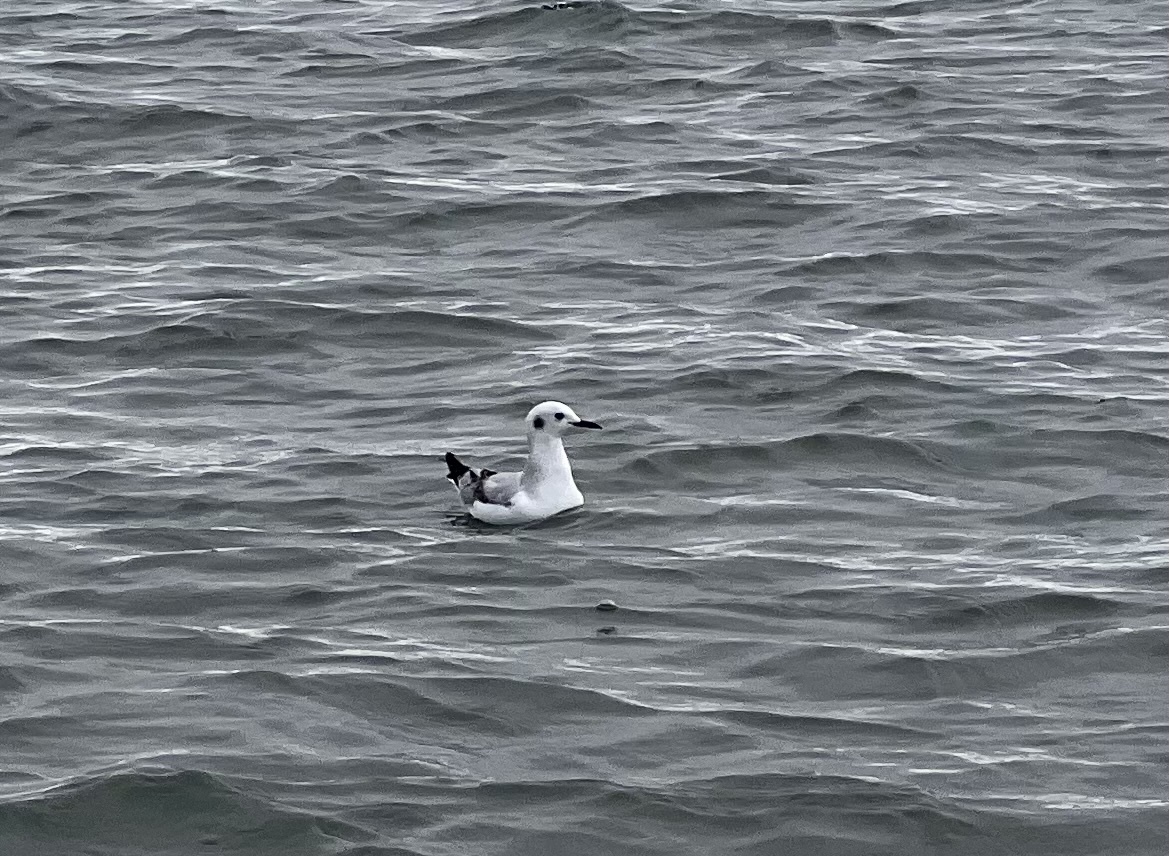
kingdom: Animalia
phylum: Chordata
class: Aves
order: Charadriiformes
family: Laridae
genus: Chroicocephalus
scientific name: Chroicocephalus philadelphia
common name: Bonaparte's gull
